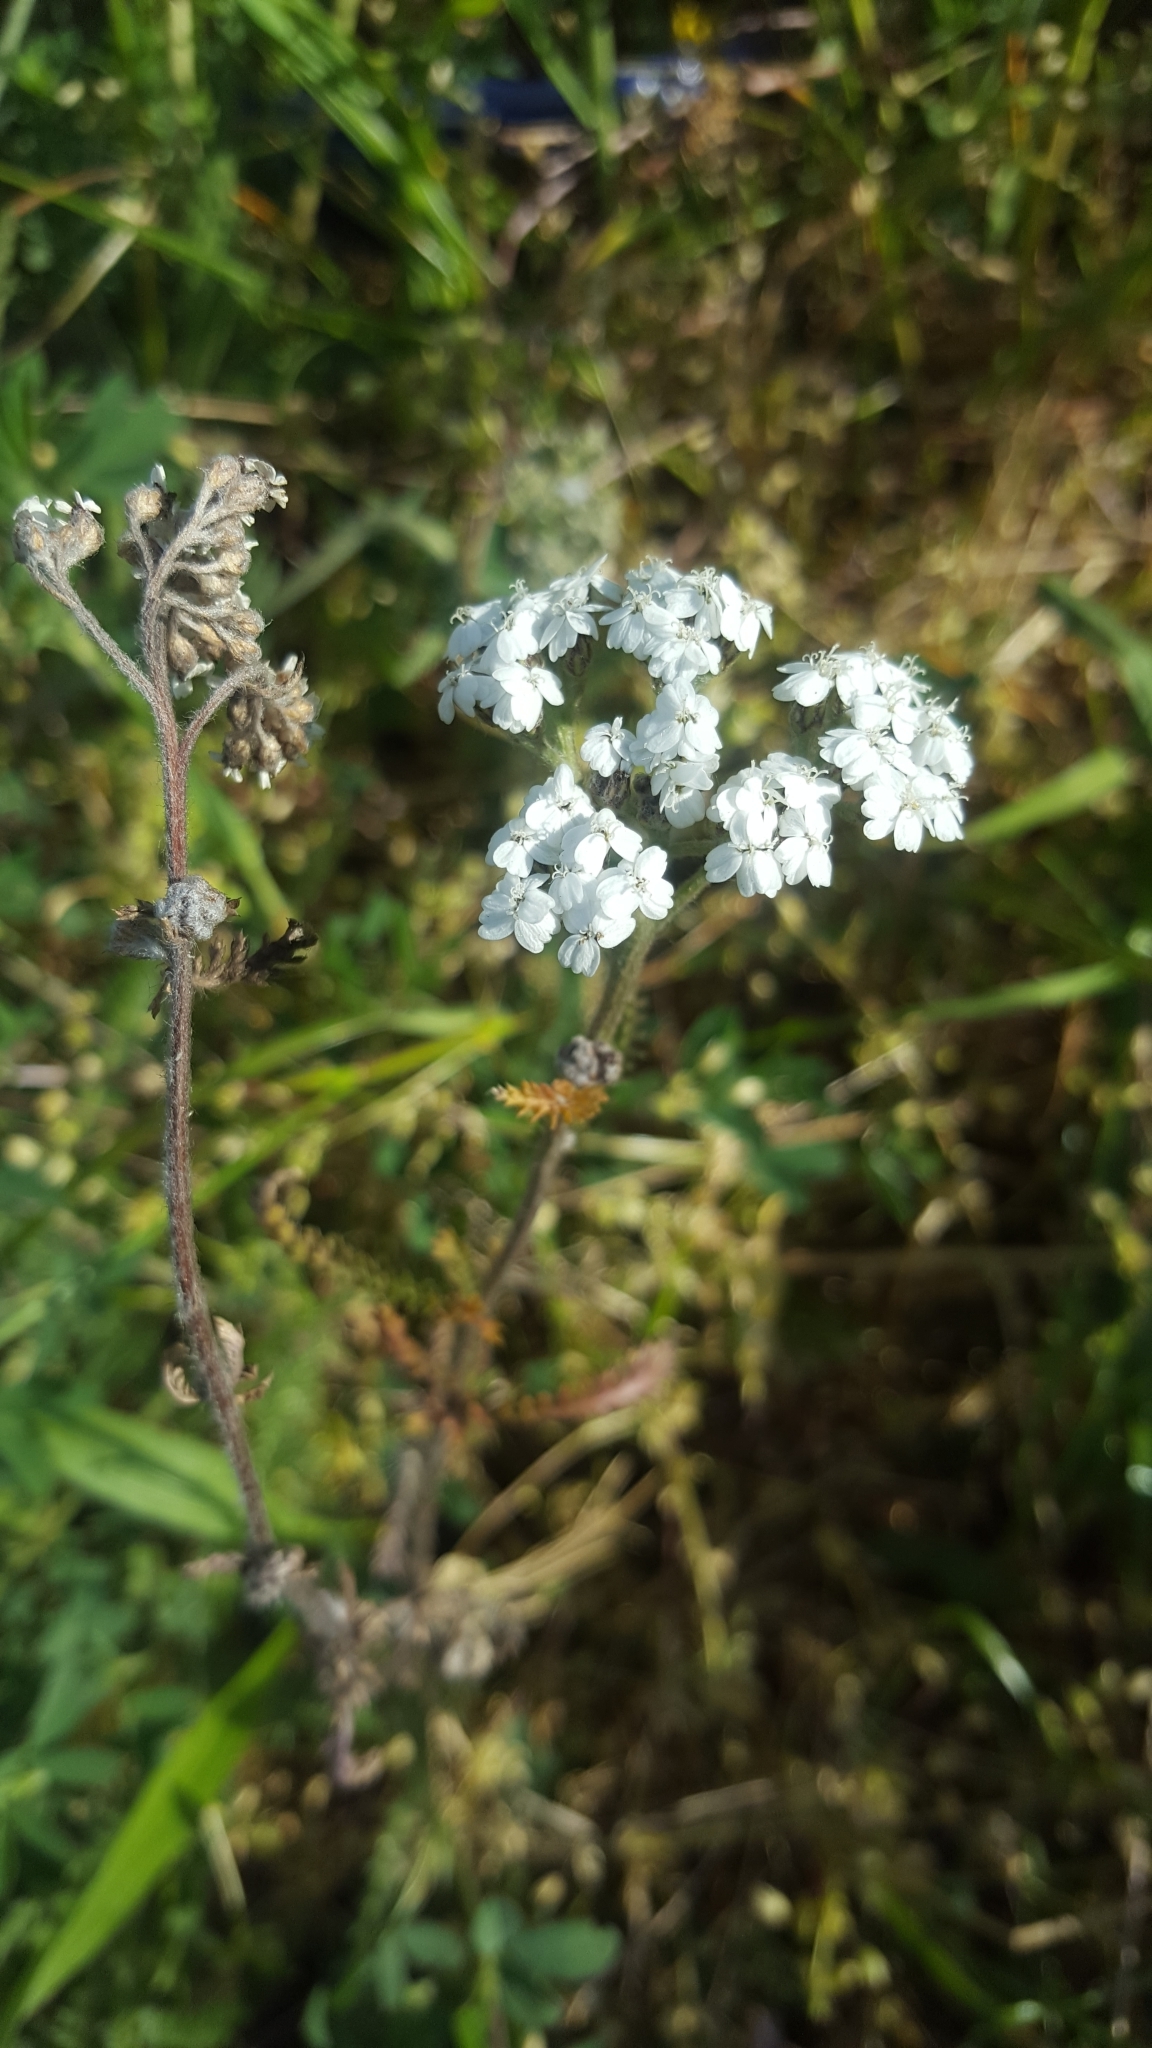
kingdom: Plantae
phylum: Tracheophyta
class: Magnoliopsida
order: Asterales
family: Asteraceae
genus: Achillea
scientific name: Achillea millefolium
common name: Yarrow
